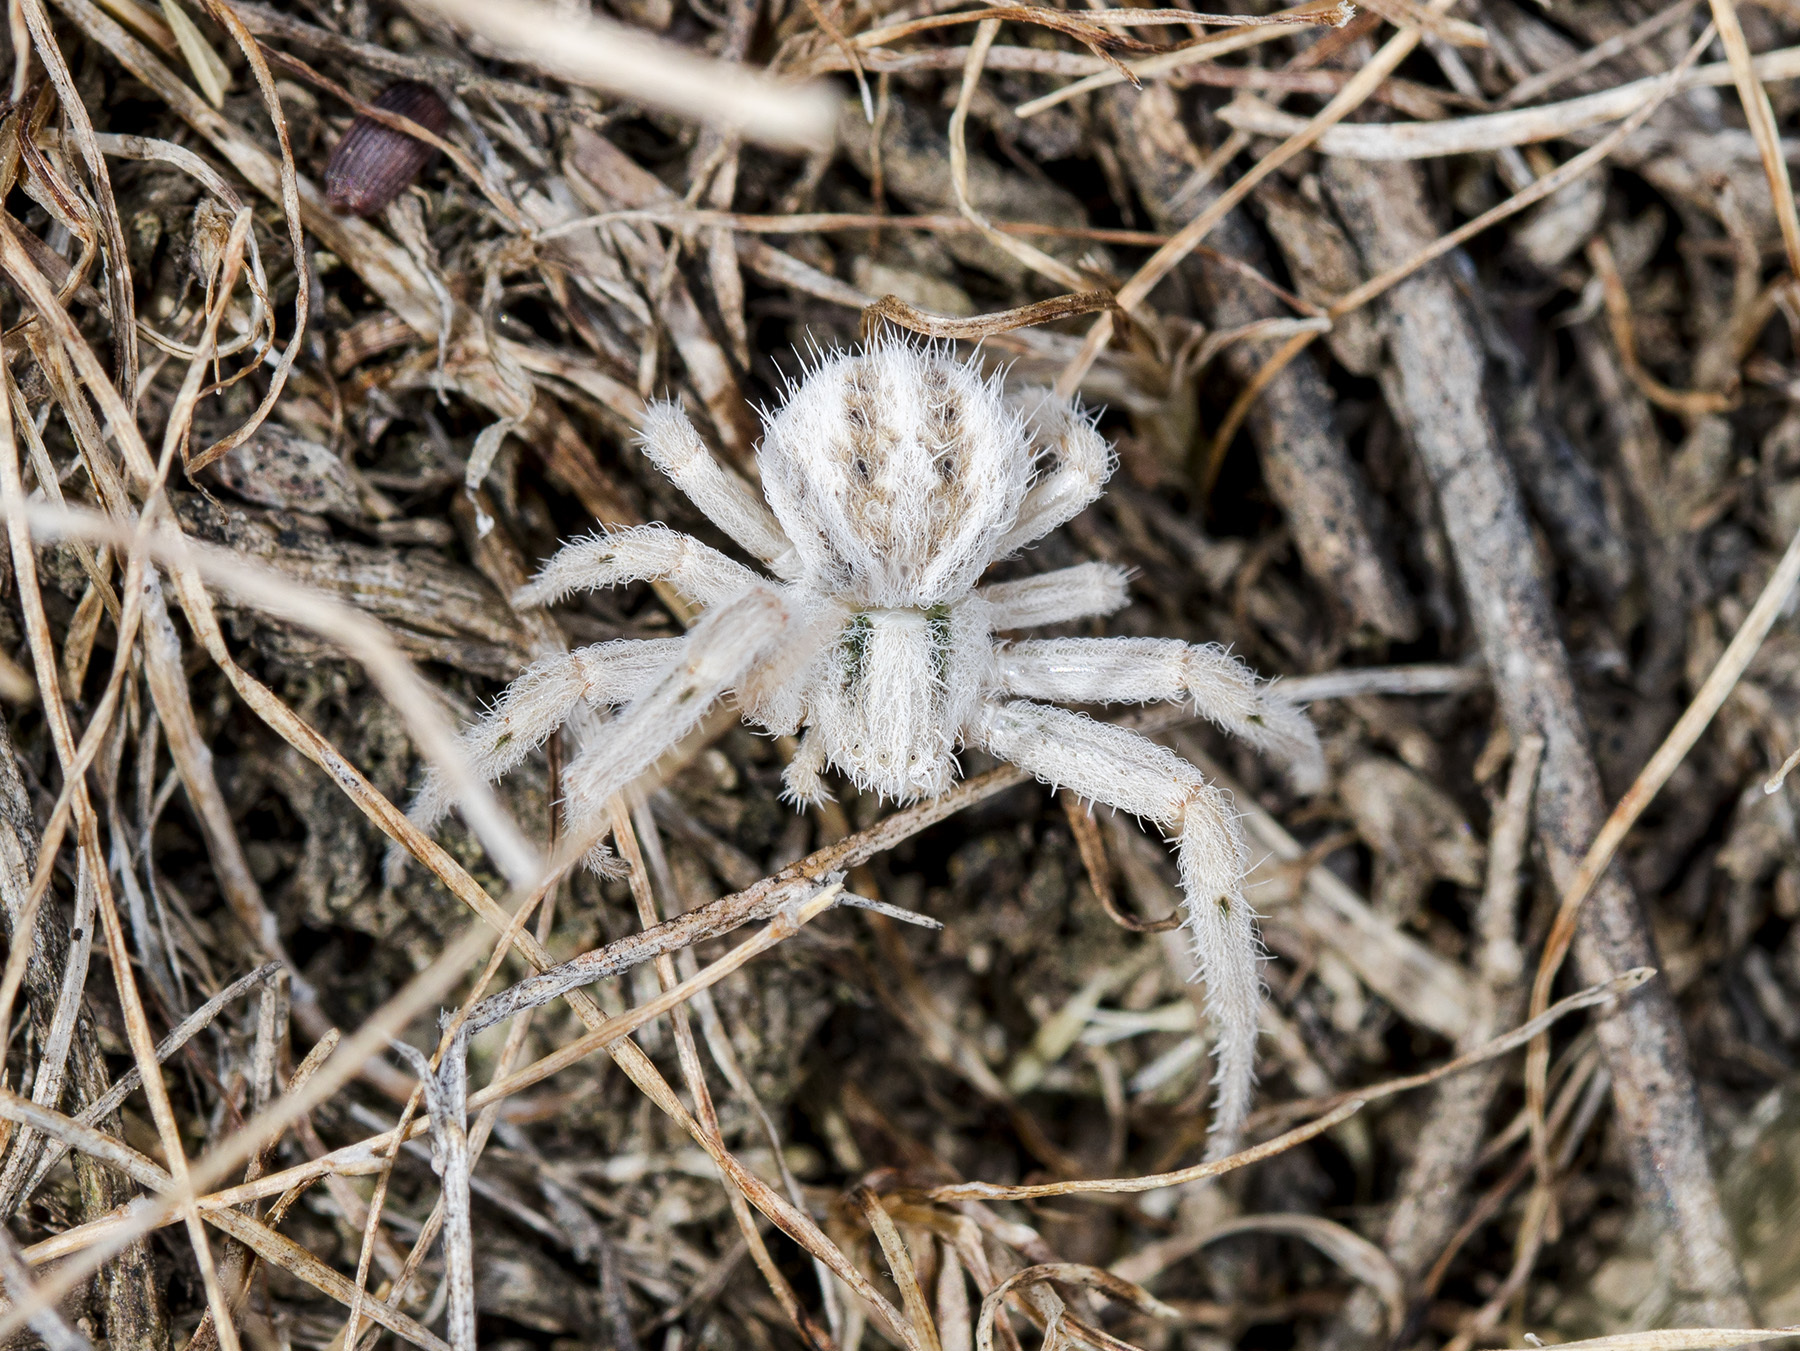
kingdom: Animalia
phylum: Arthropoda
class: Arachnida
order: Araneae
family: Thomisidae
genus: Heriaeus
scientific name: Heriaeus horridus
